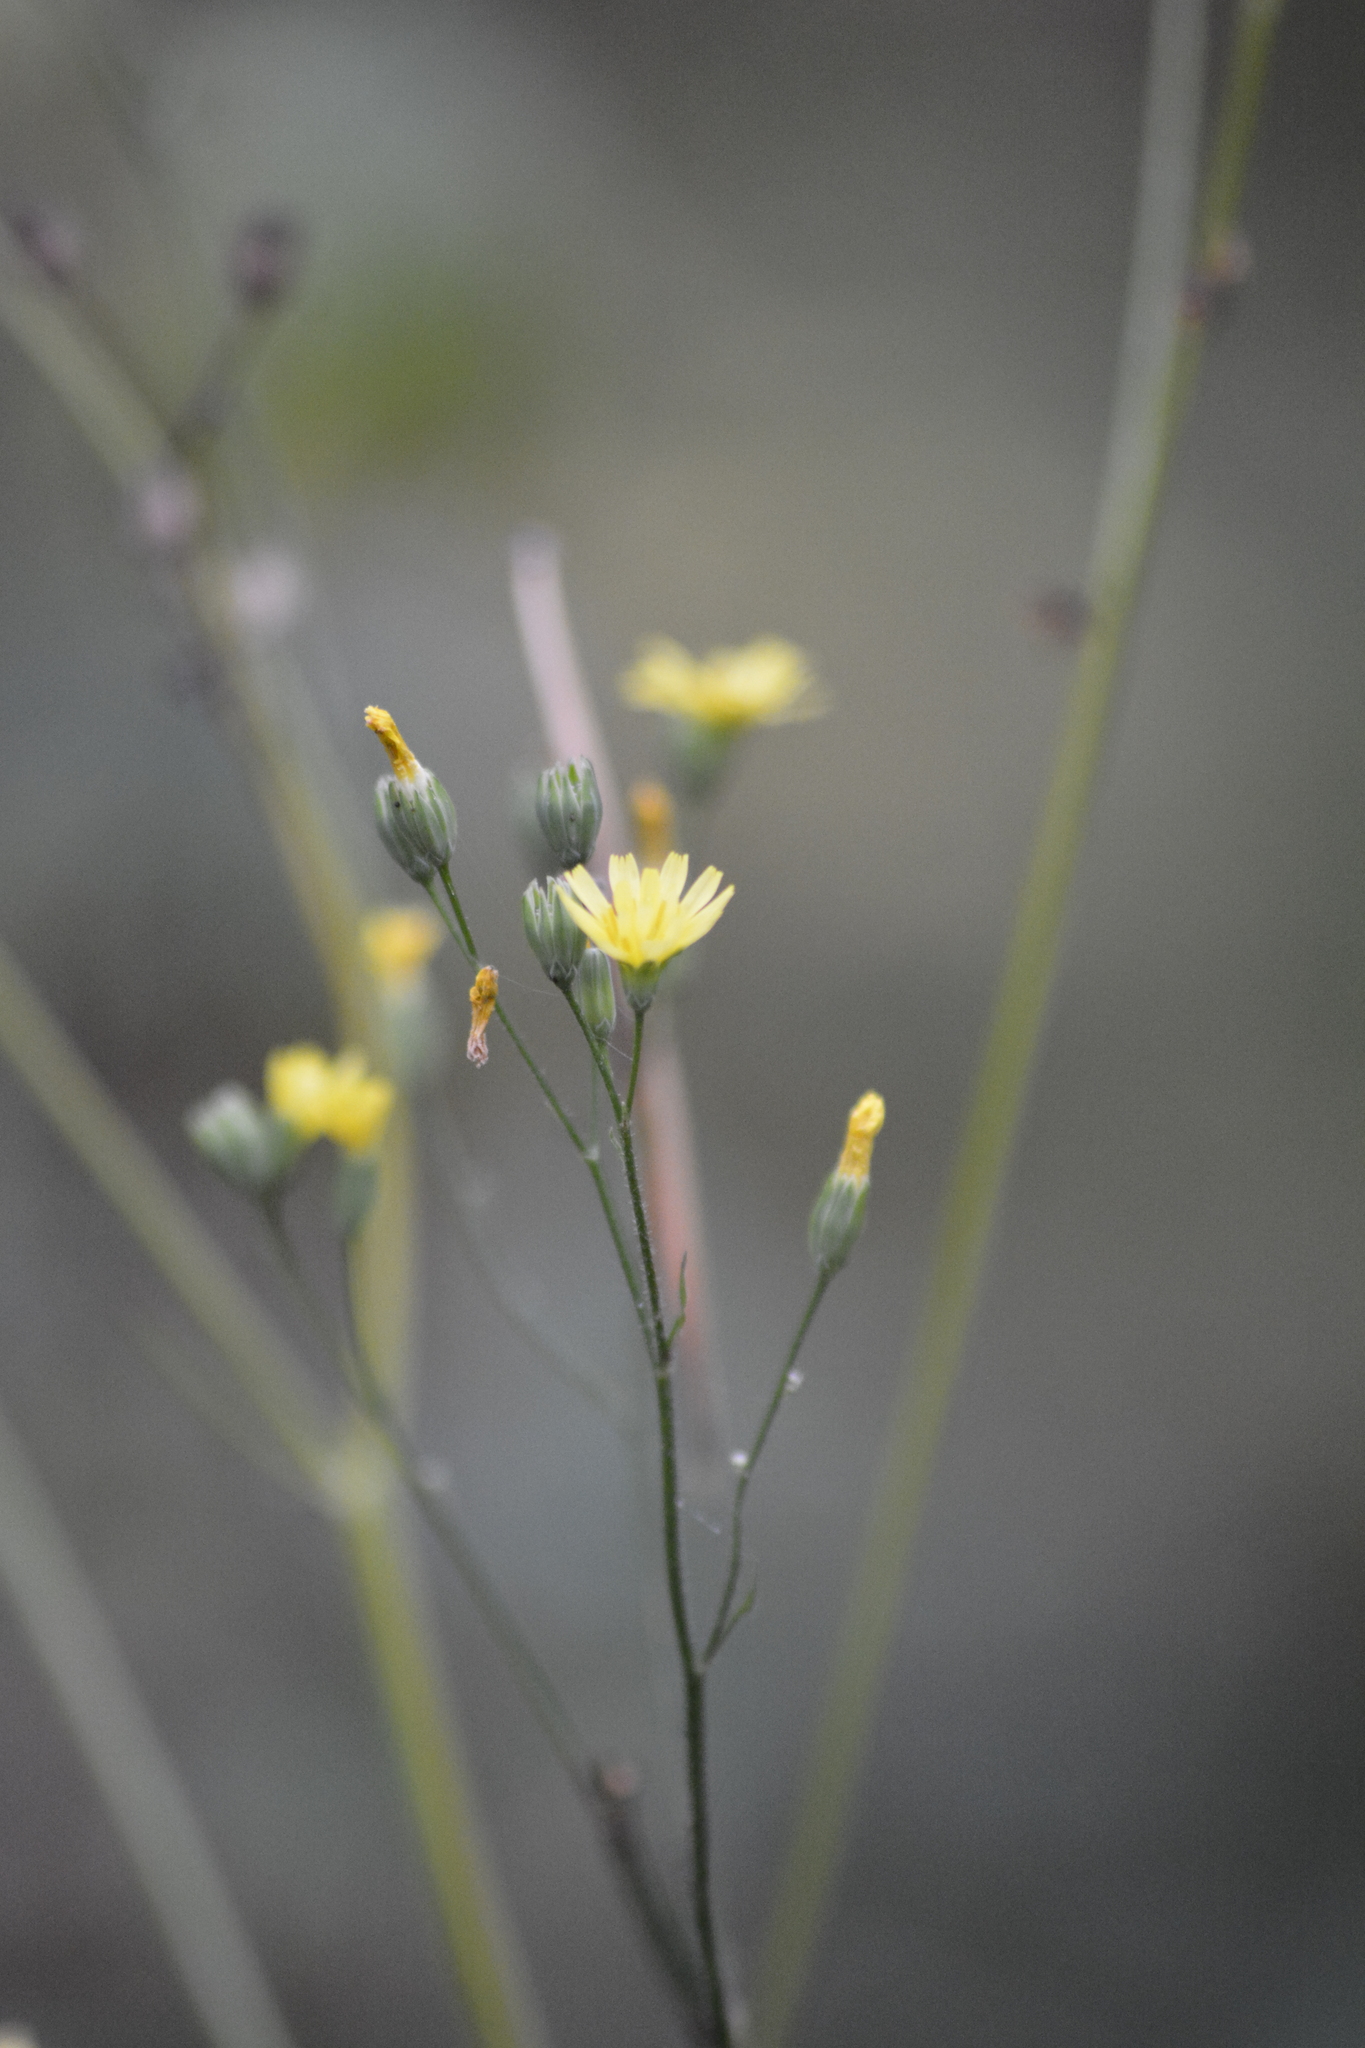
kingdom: Plantae
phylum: Tracheophyta
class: Magnoliopsida
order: Asterales
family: Asteraceae
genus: Lapsana
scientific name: Lapsana communis
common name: Nipplewort
